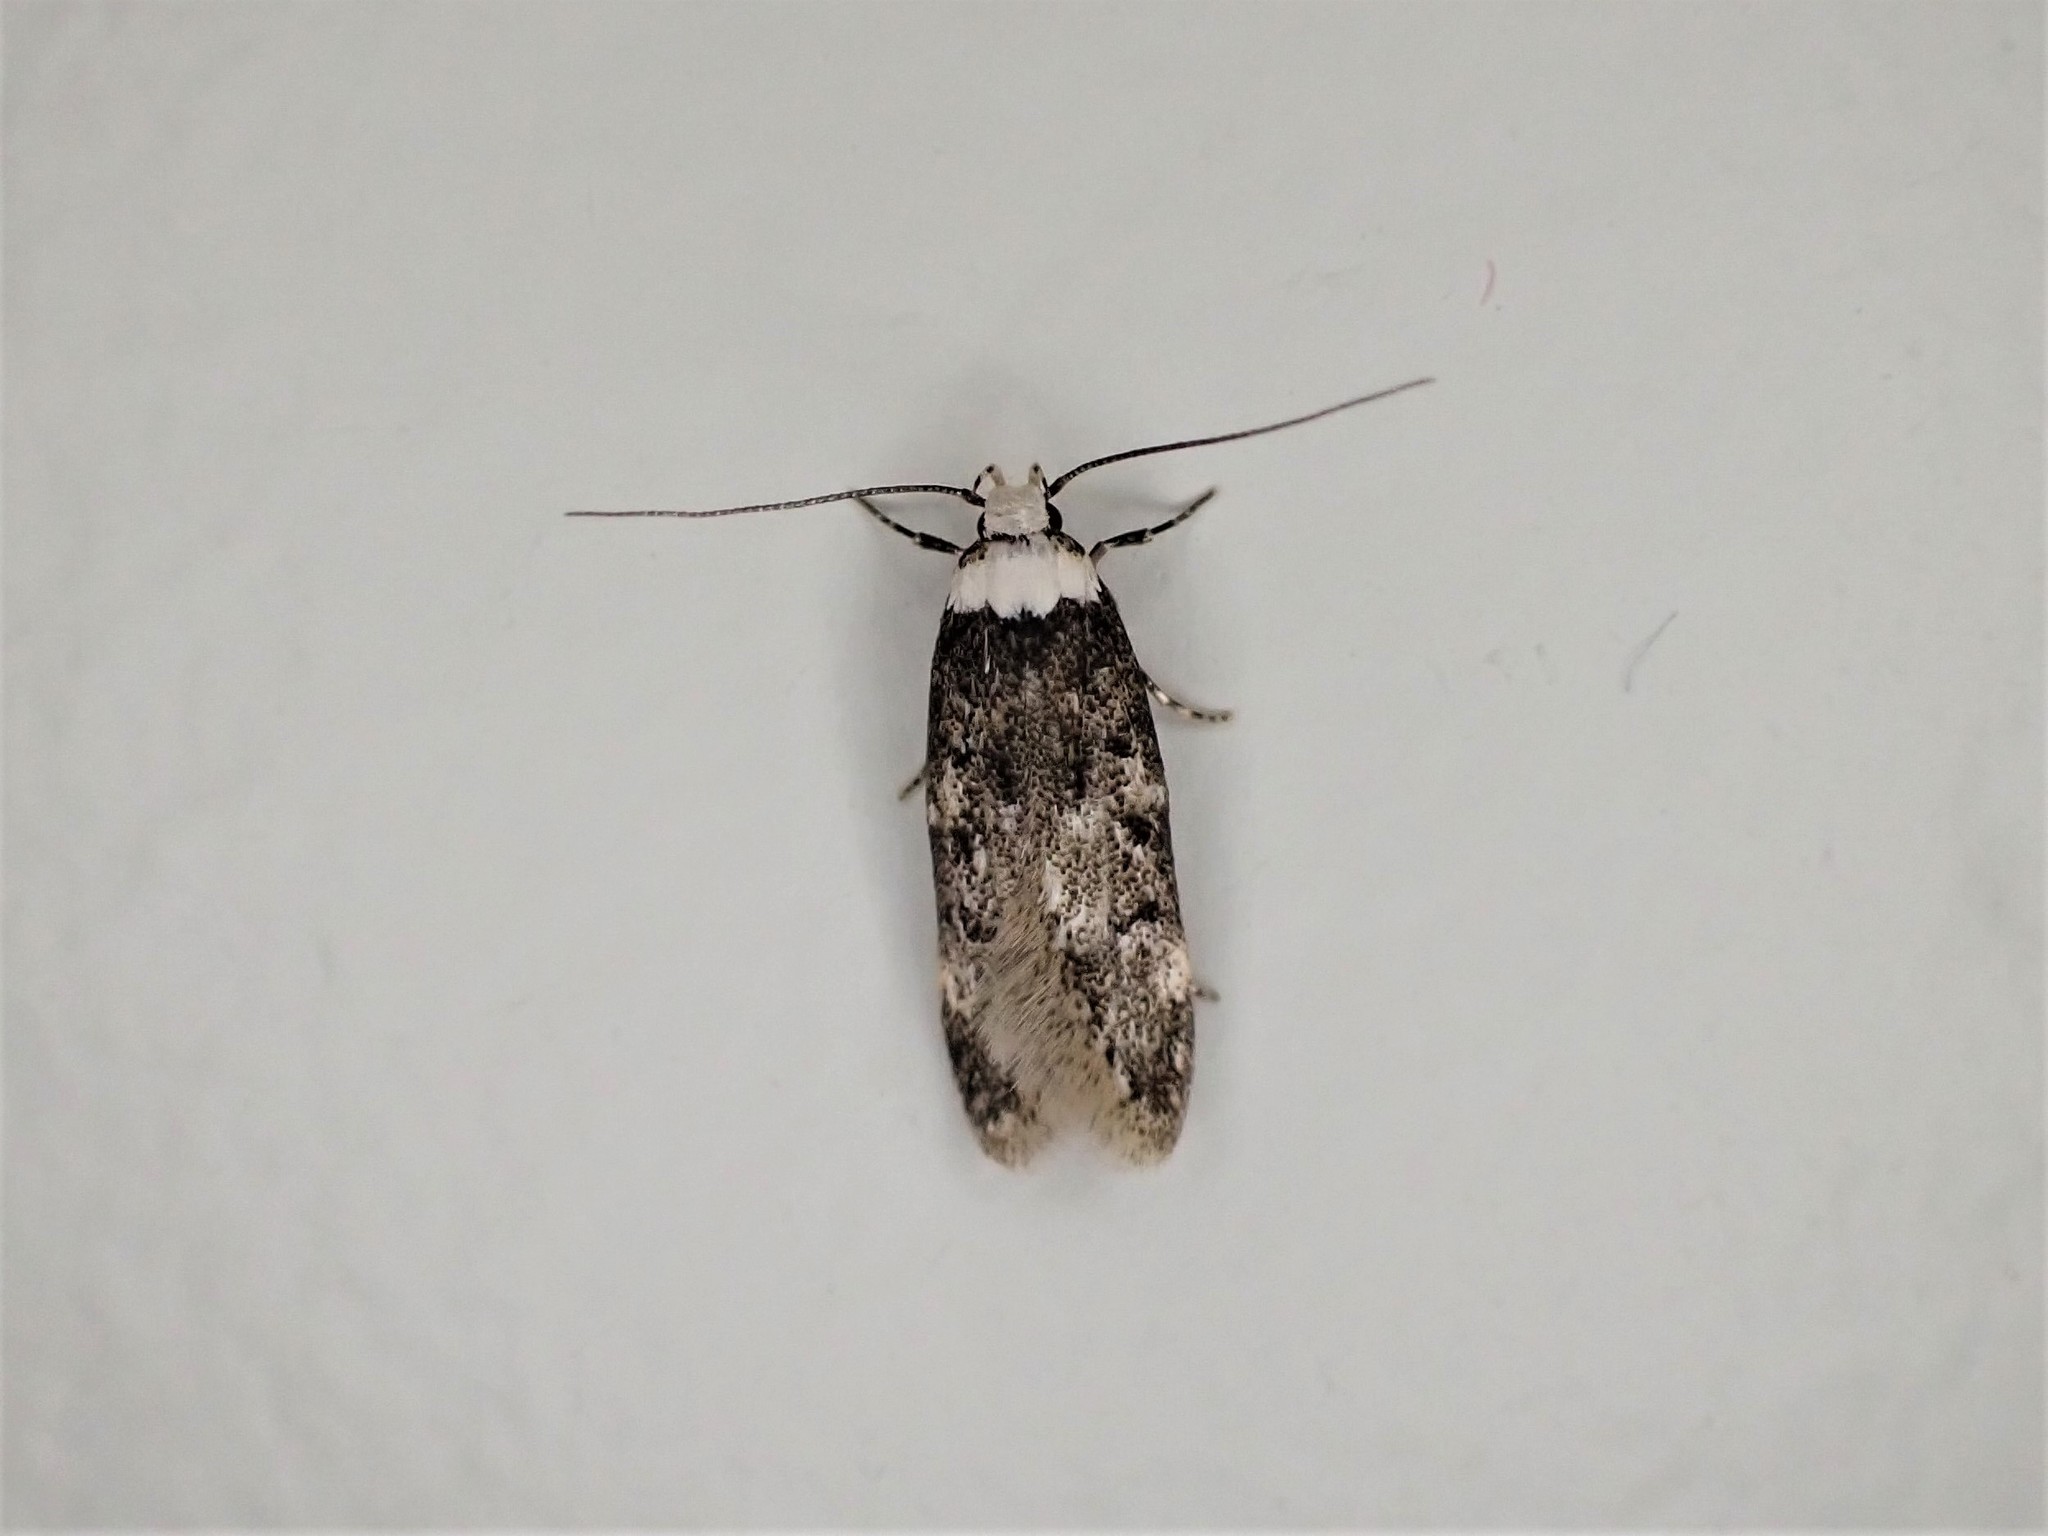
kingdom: Animalia
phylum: Arthropoda
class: Insecta
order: Lepidoptera
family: Oecophoridae
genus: Endrosis
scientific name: Endrosis sarcitrella
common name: White-shouldered house moth
